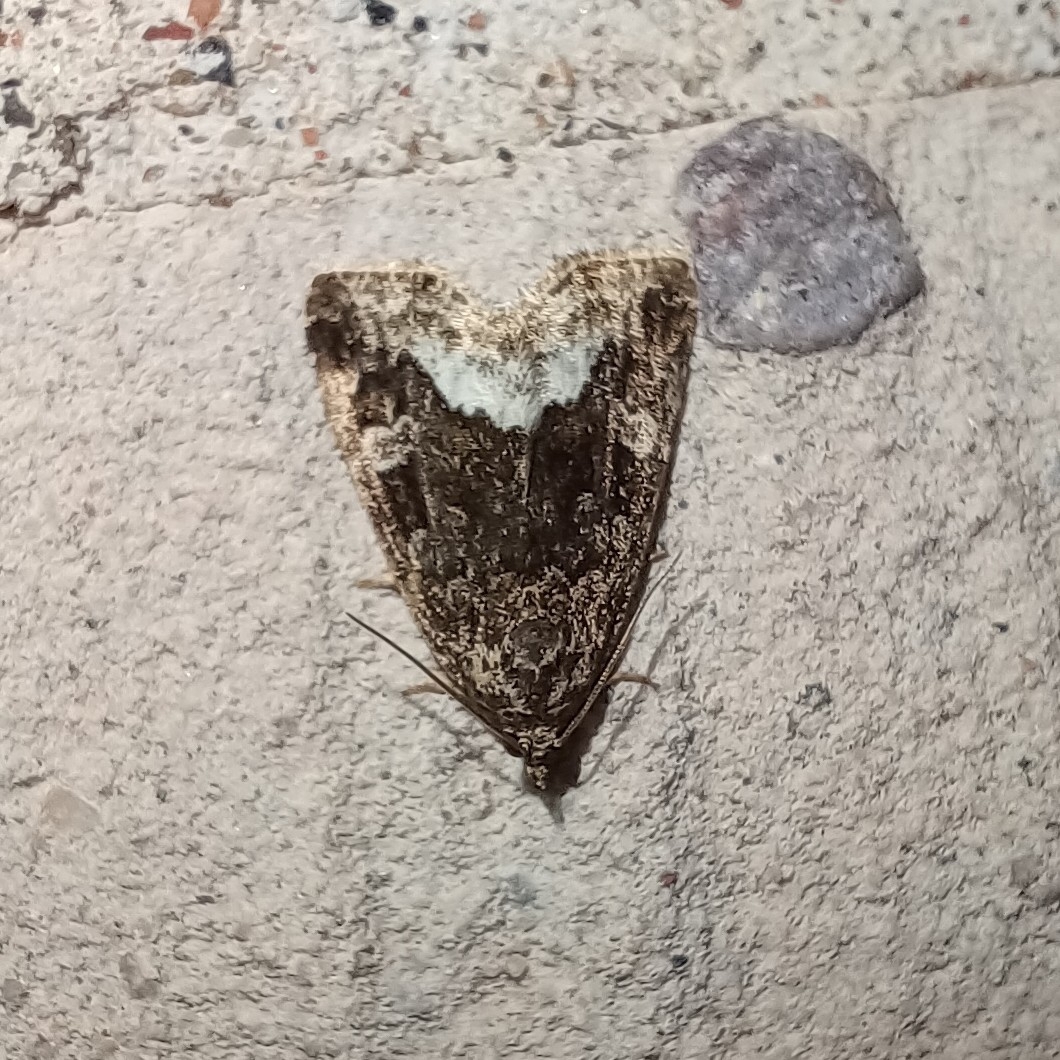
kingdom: Animalia
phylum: Arthropoda
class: Insecta
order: Lepidoptera
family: Noctuidae
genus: Deltote
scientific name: Deltote pygarga
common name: Marbled white spot
